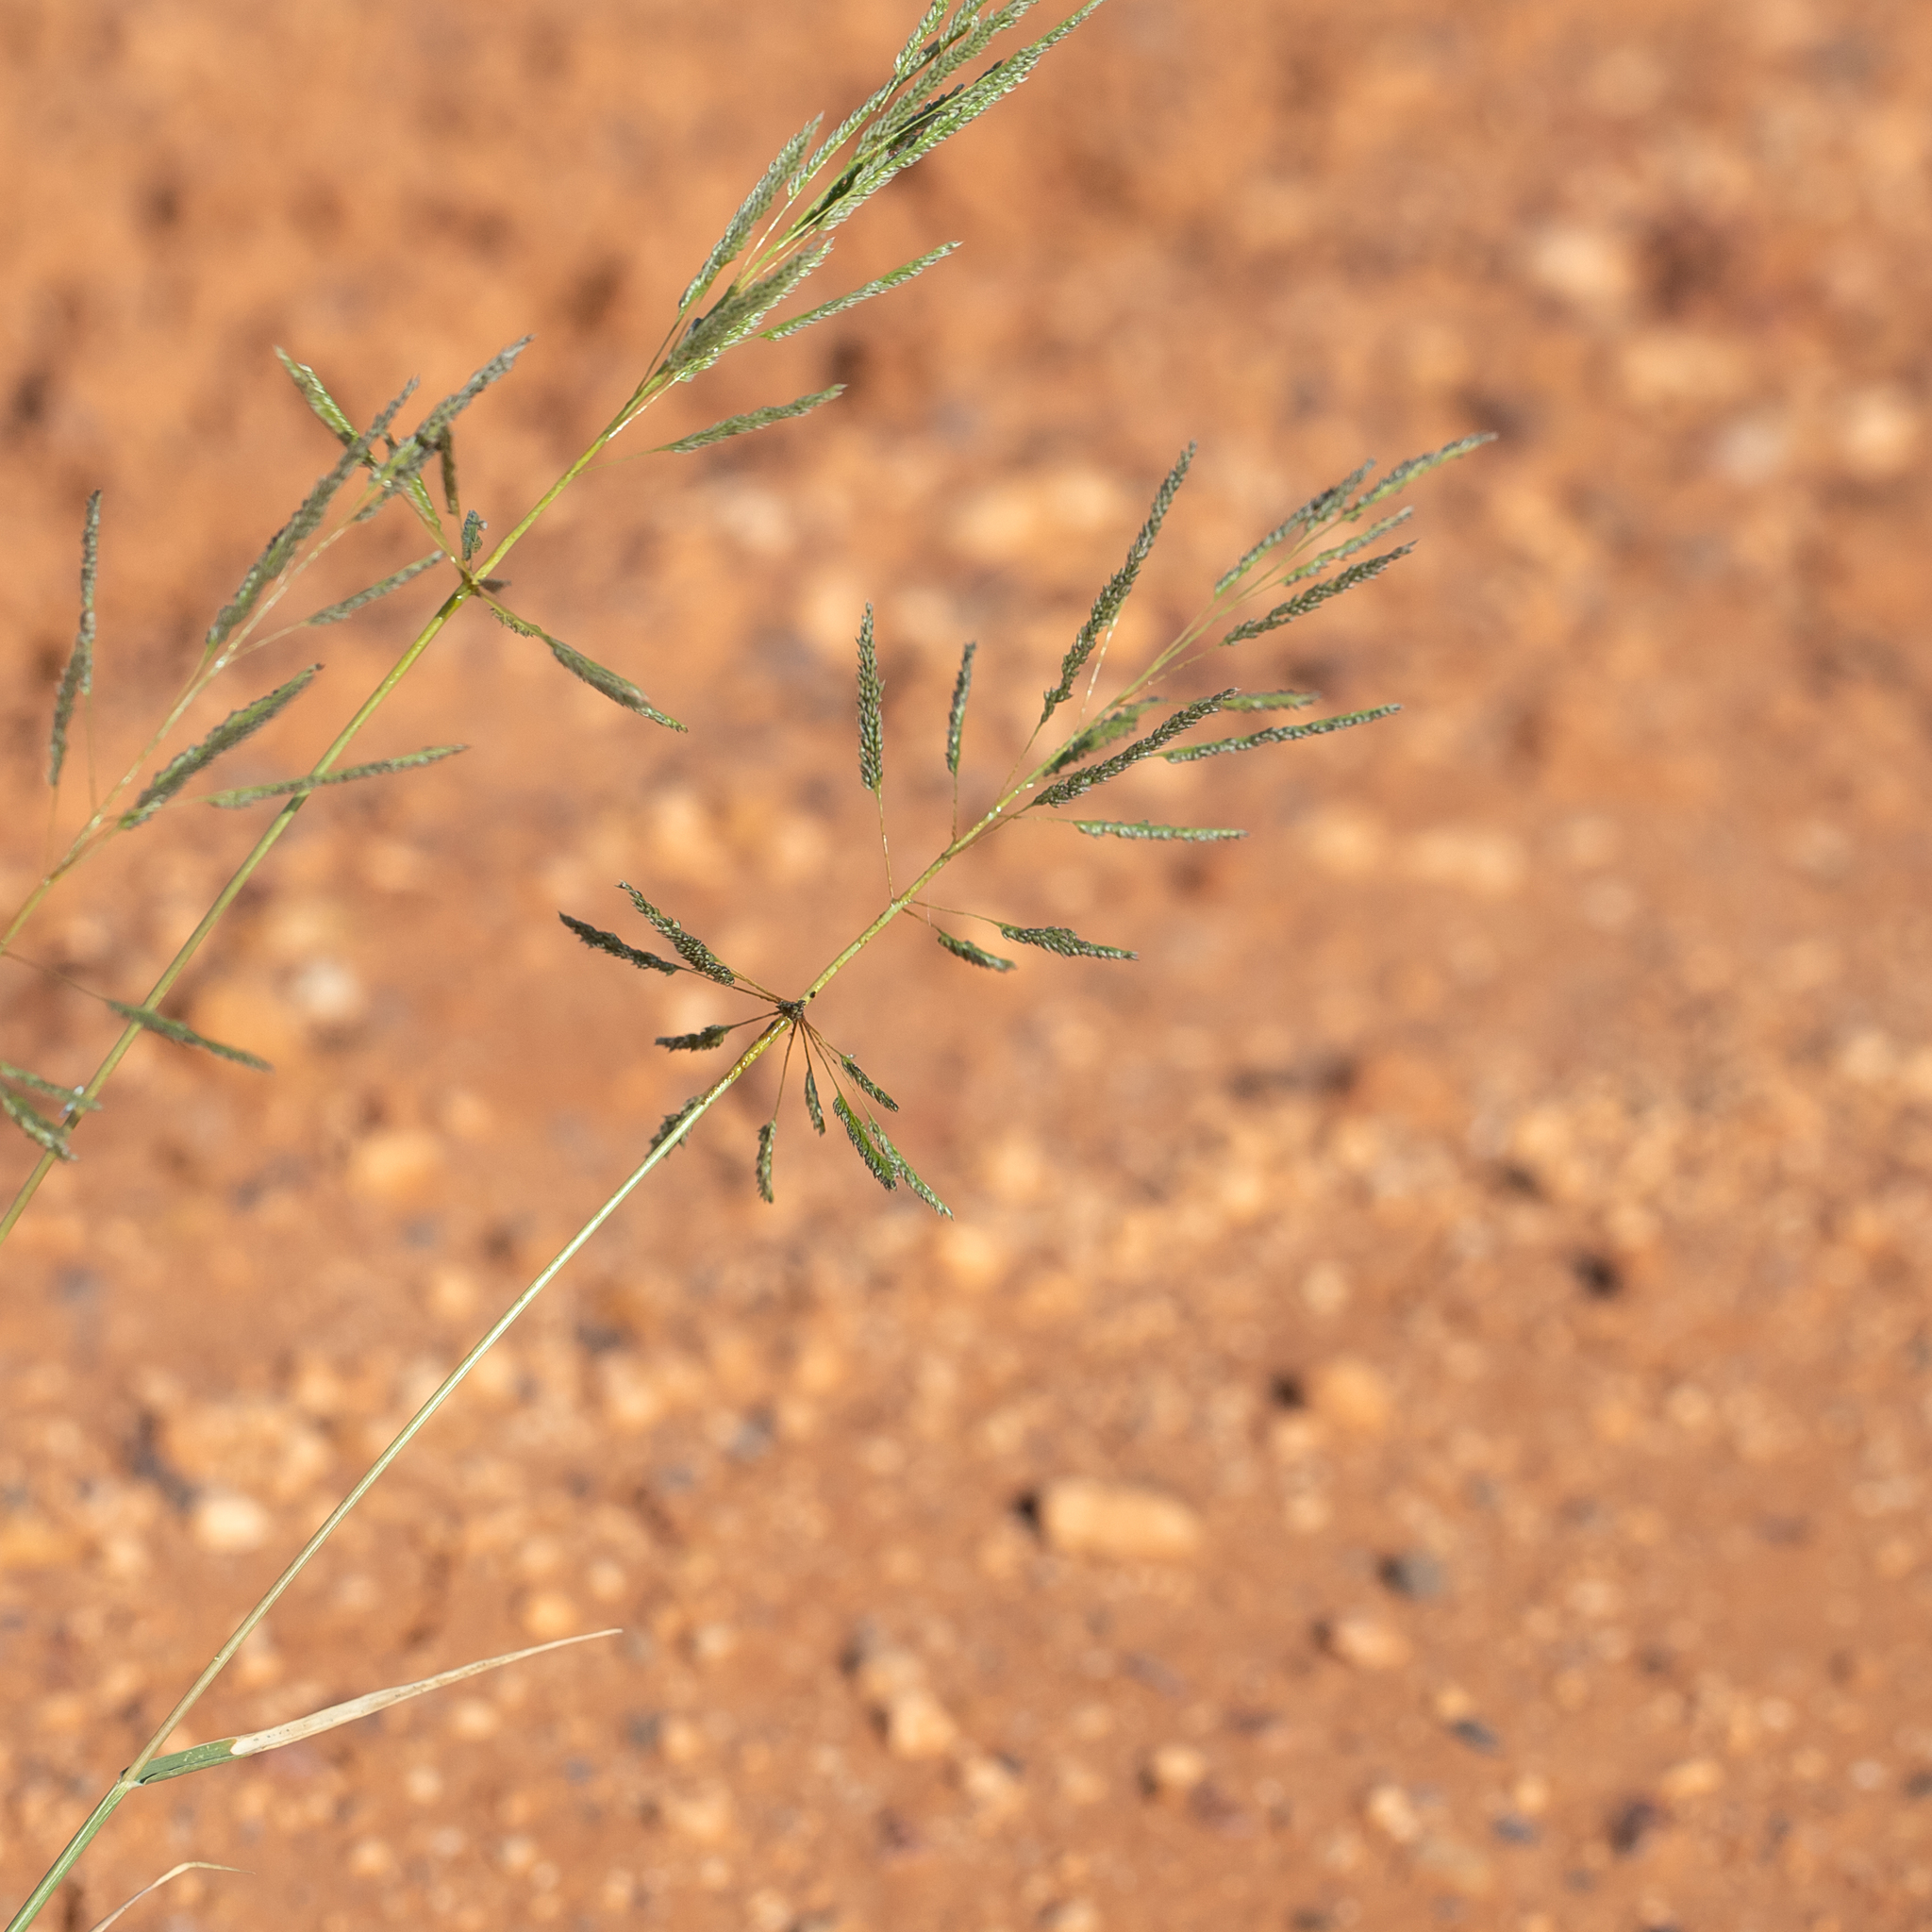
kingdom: Plantae
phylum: Tracheophyta
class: Liliopsida
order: Poales
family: Poaceae
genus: Sporobolus
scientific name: Sporobolus actinocladus
